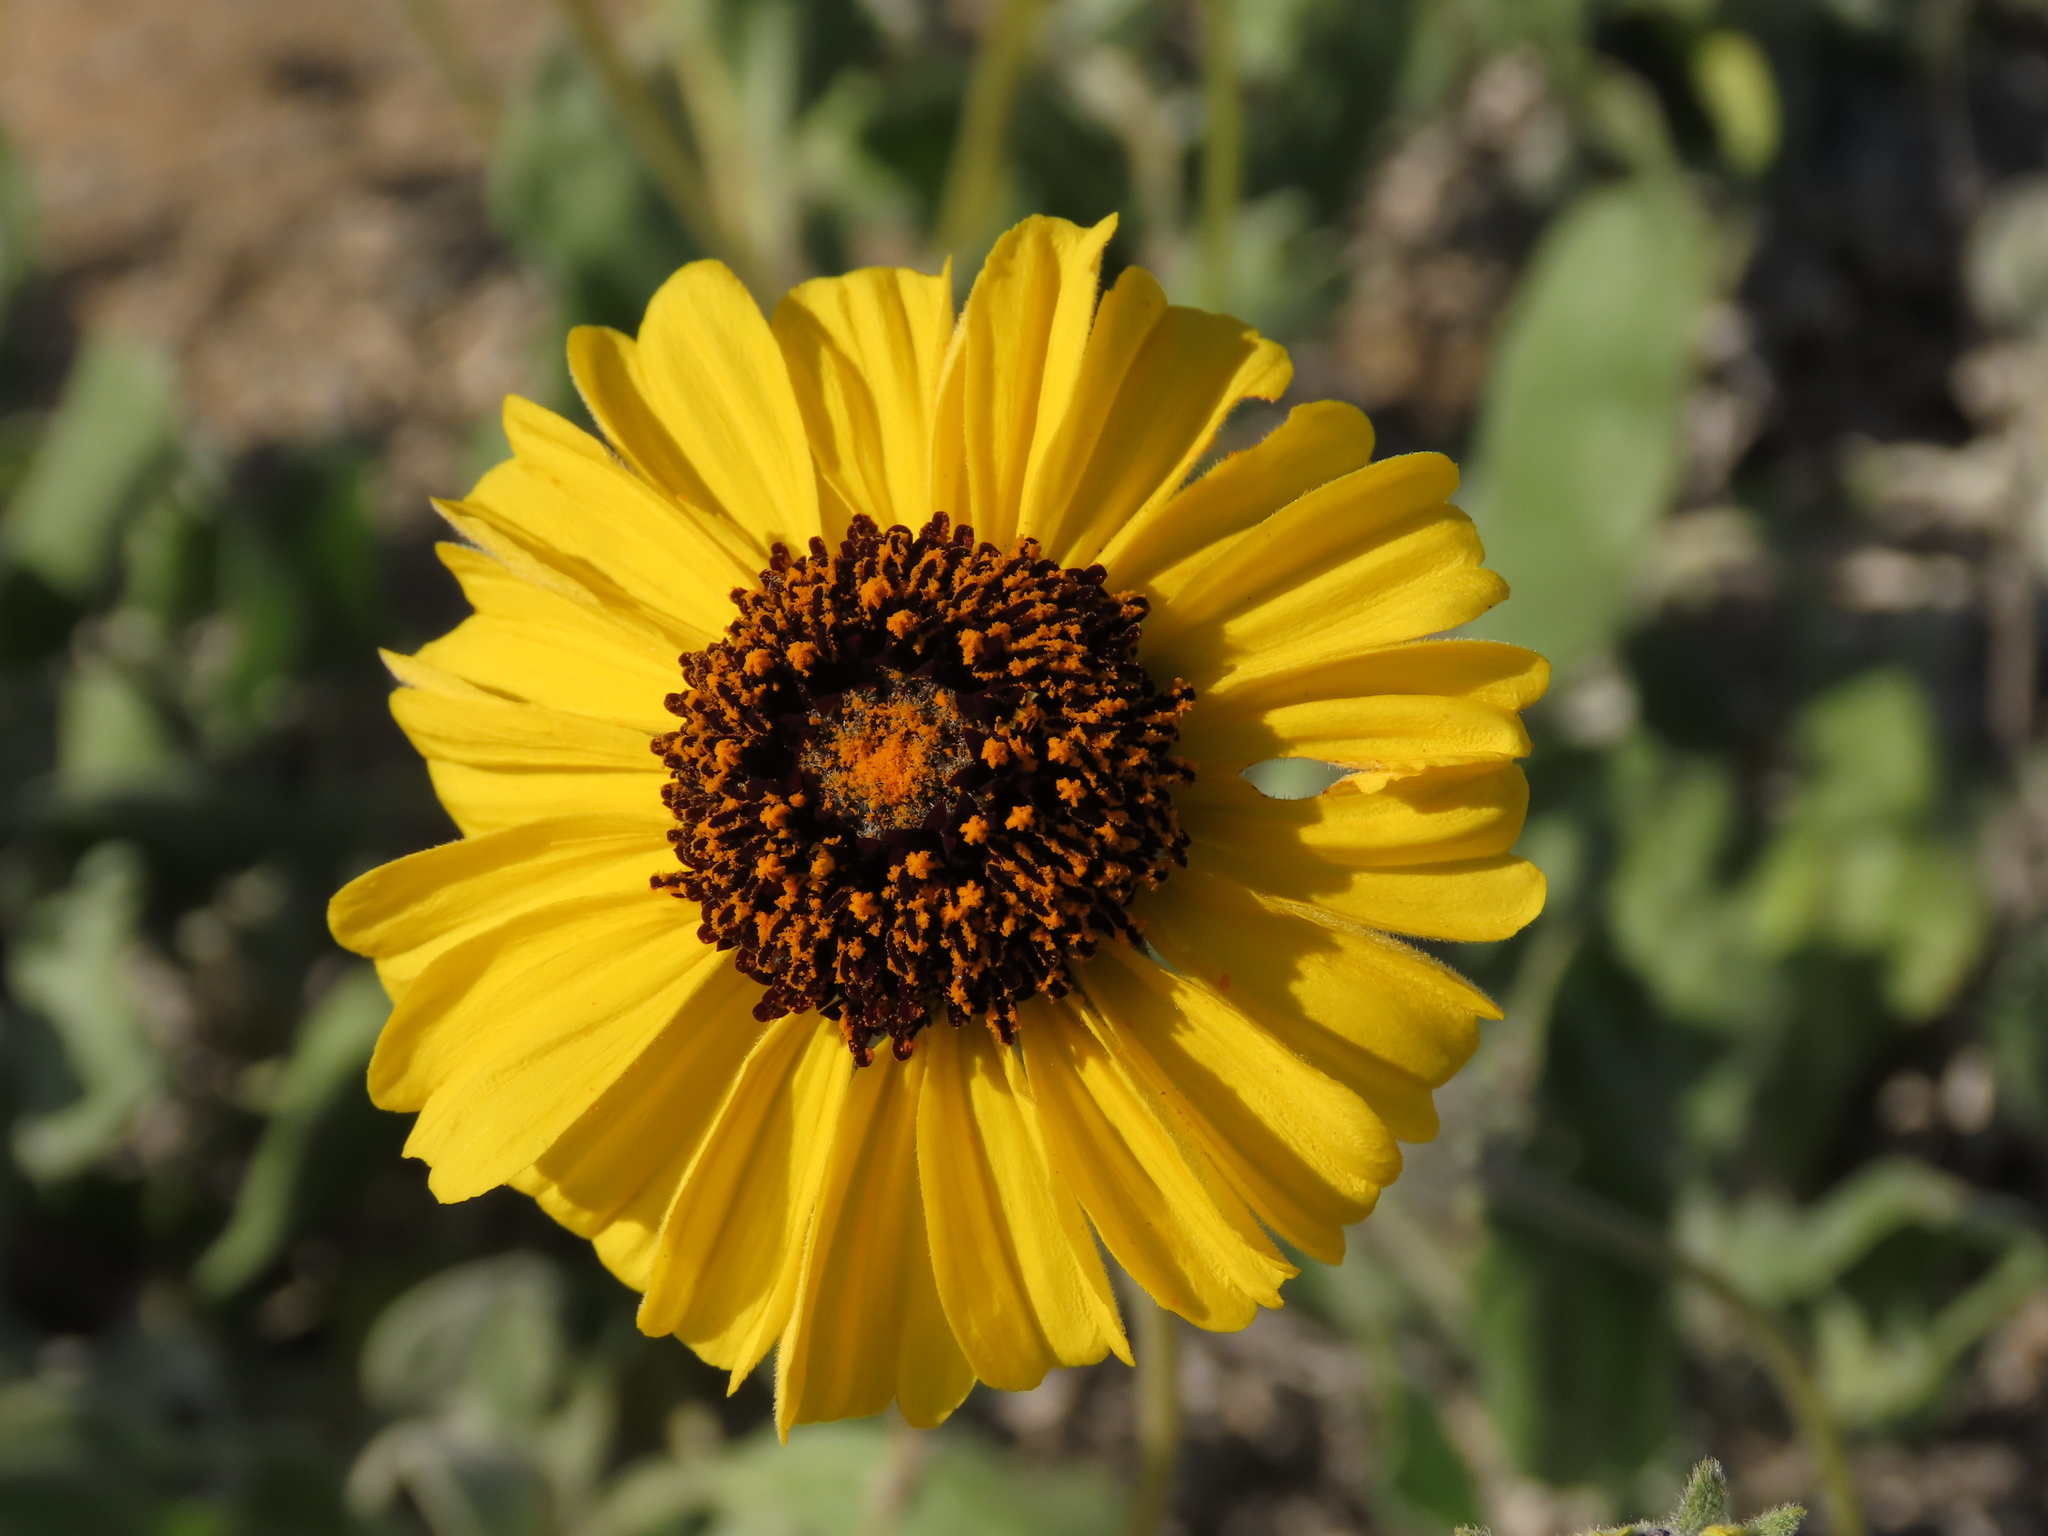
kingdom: Plantae
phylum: Tracheophyta
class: Magnoliopsida
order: Asterales
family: Asteraceae
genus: Encelia
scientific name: Encelia canescens
